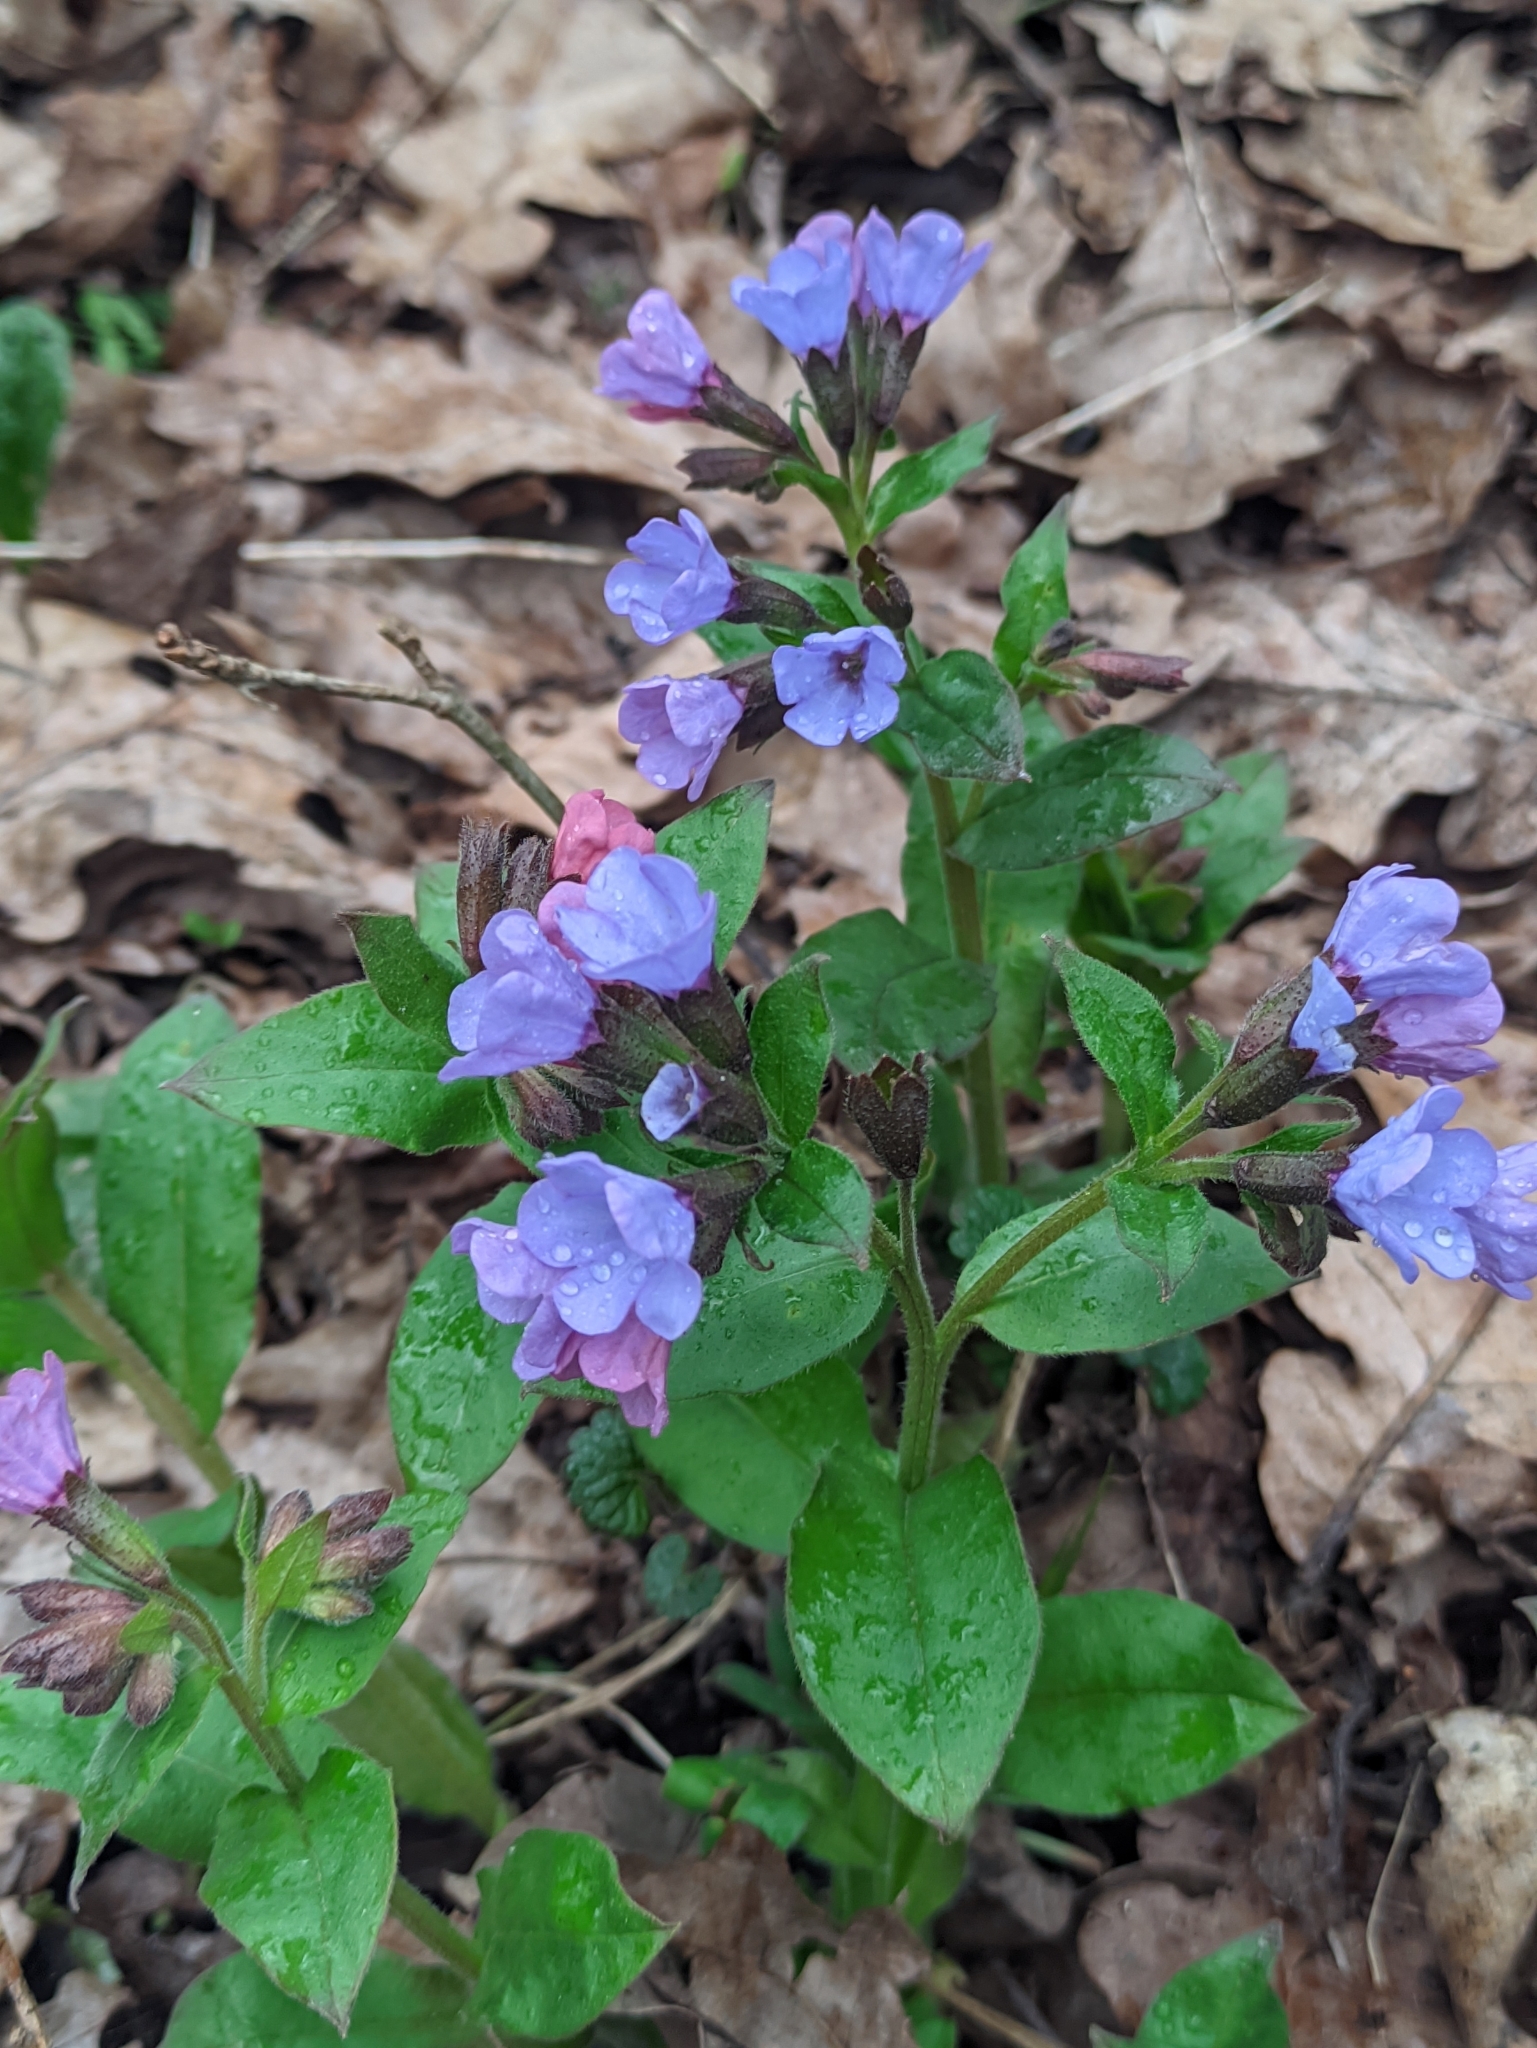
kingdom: Plantae
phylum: Tracheophyta
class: Magnoliopsida
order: Boraginales
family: Boraginaceae
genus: Pulmonaria
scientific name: Pulmonaria obscura
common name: Suffolk lungwort
